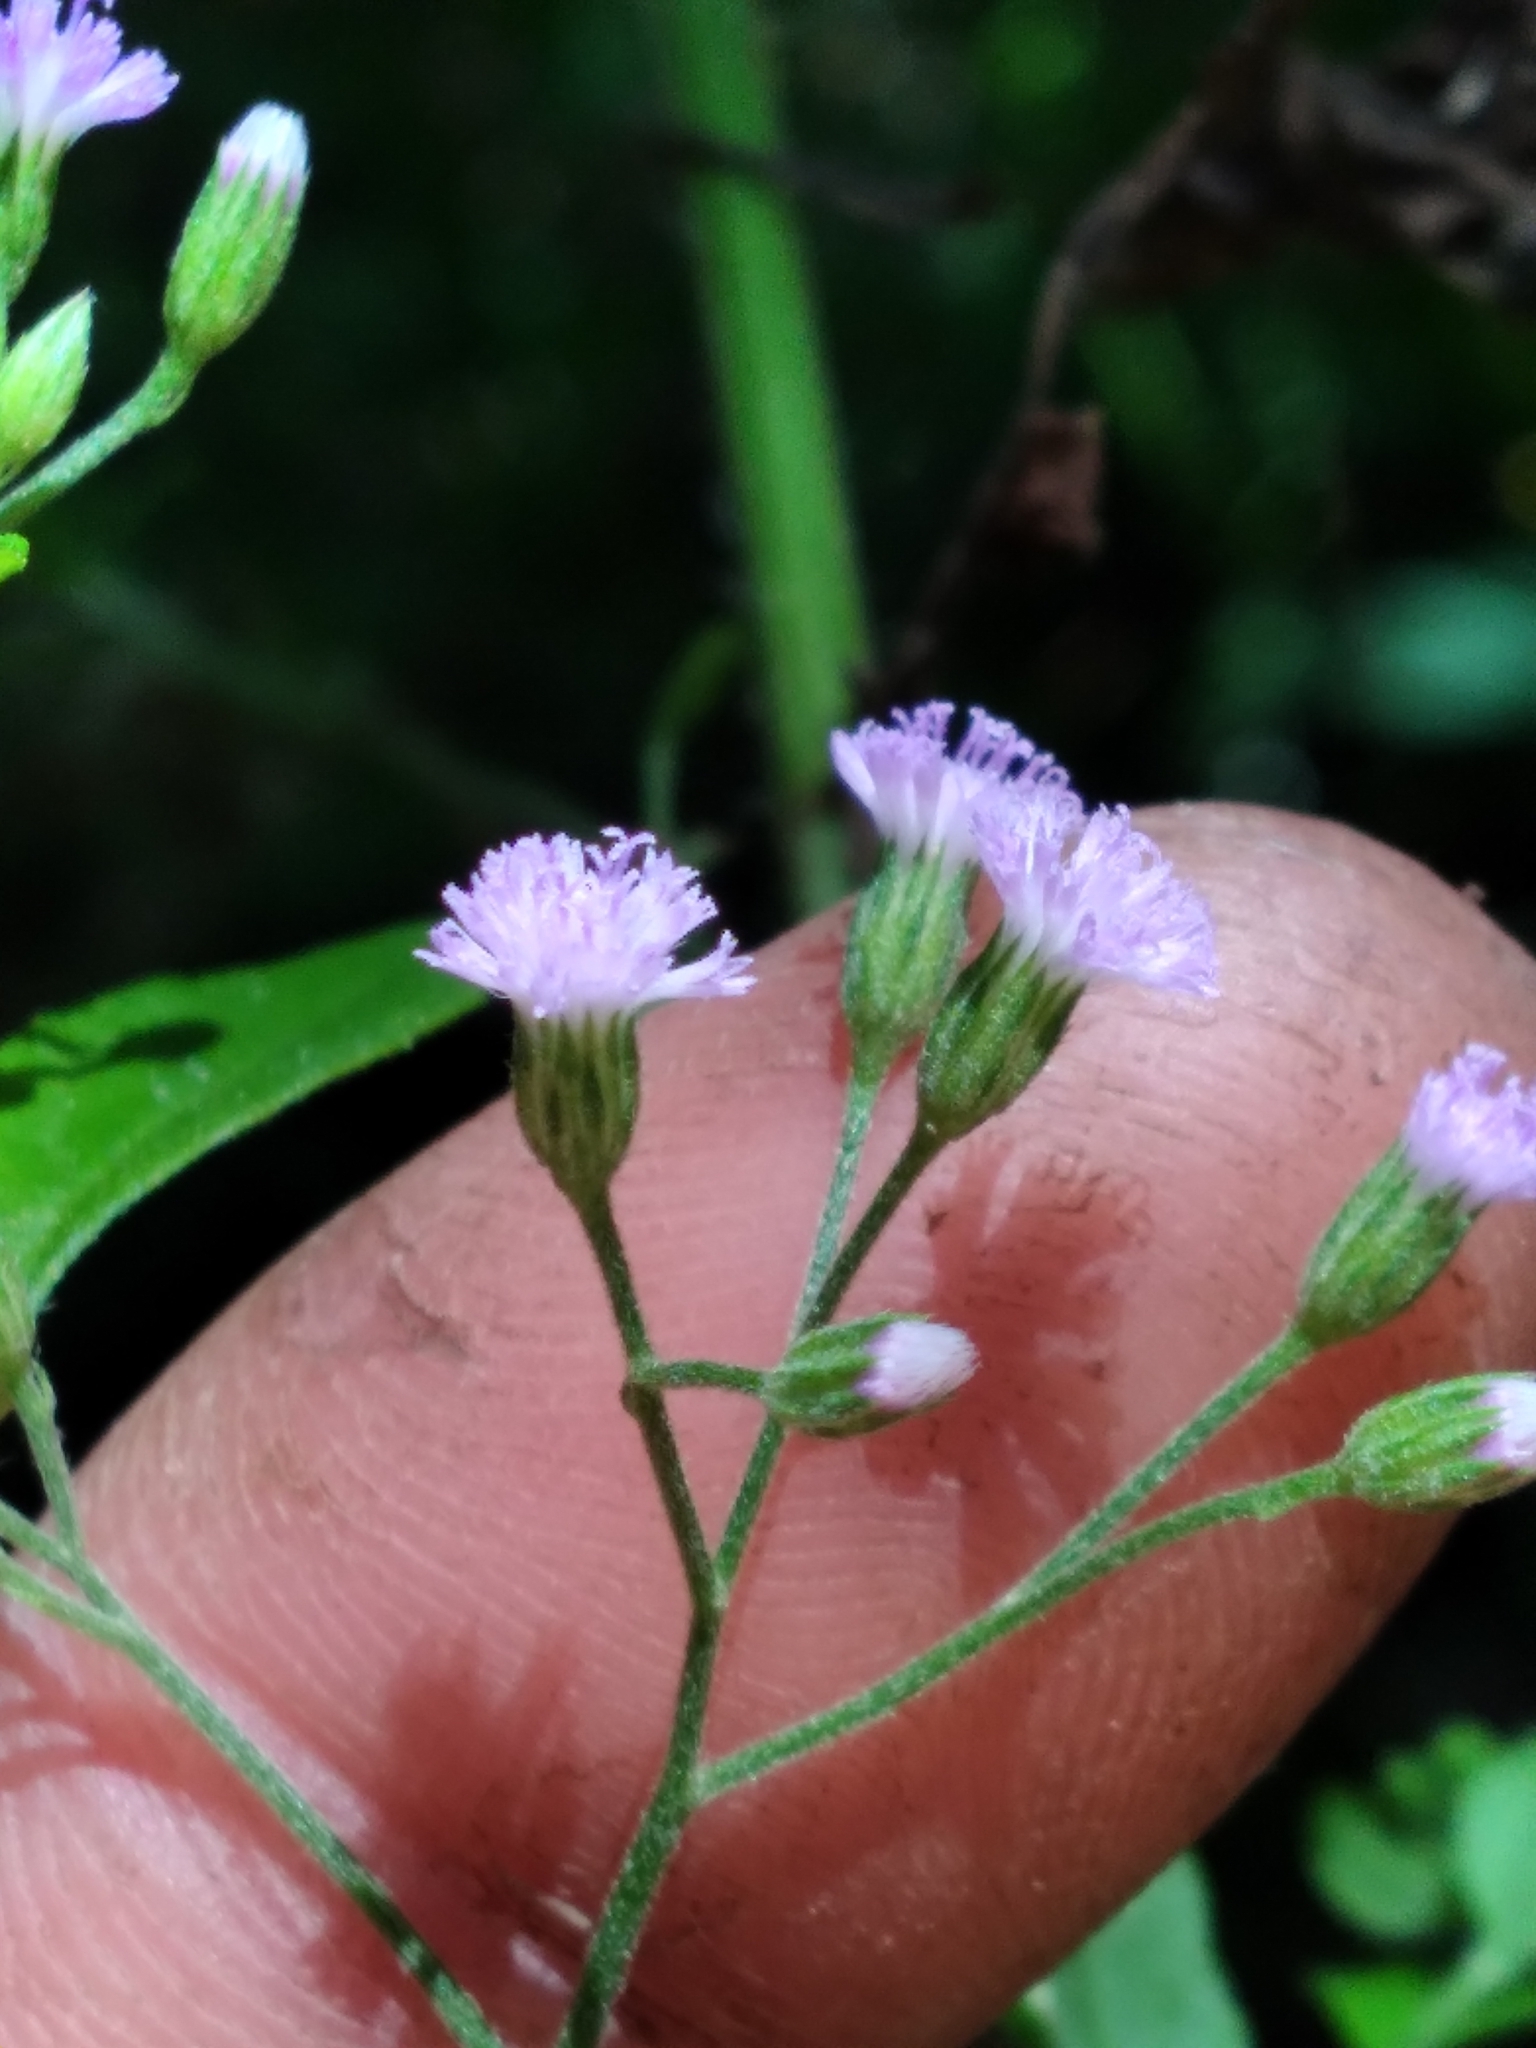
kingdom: Plantae
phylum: Tracheophyta
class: Magnoliopsida
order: Asterales
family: Asteraceae
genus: Cyanthillium
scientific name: Cyanthillium cinereum
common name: Little ironweed
